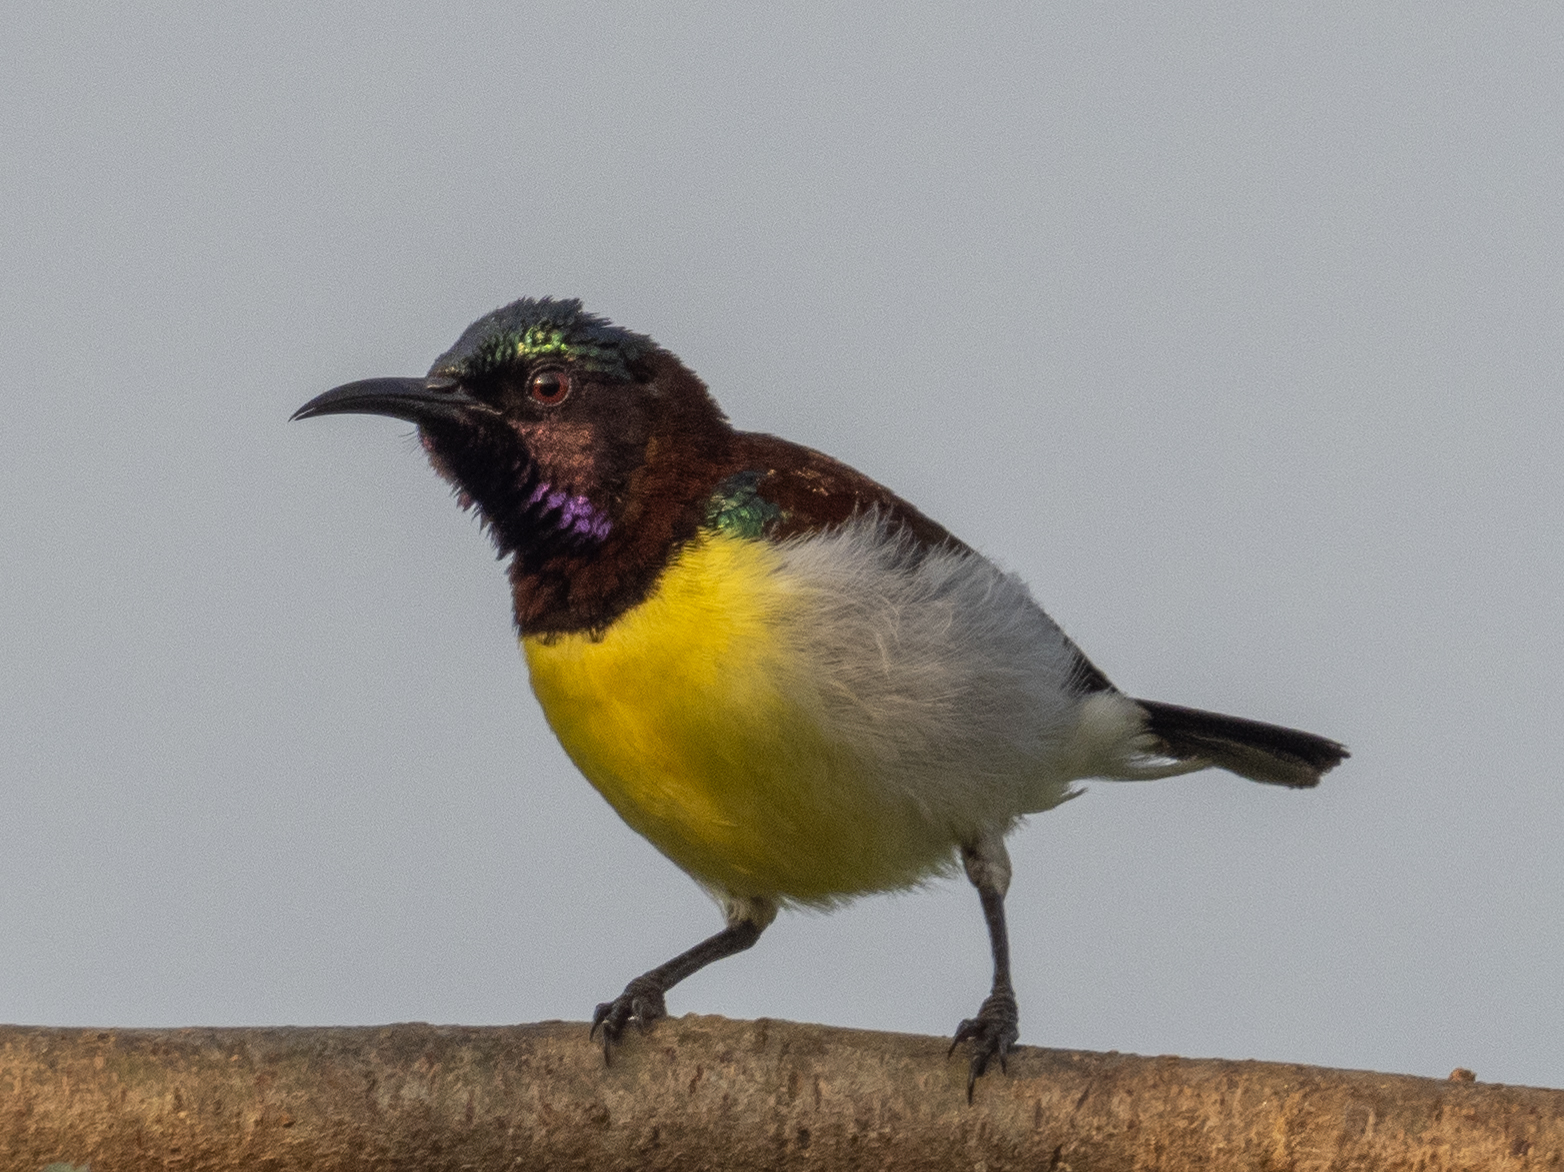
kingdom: Animalia
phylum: Chordata
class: Aves
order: Passeriformes
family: Nectariniidae
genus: Leptocoma
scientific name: Leptocoma zeylonica
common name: Purple-rumped sunbird
